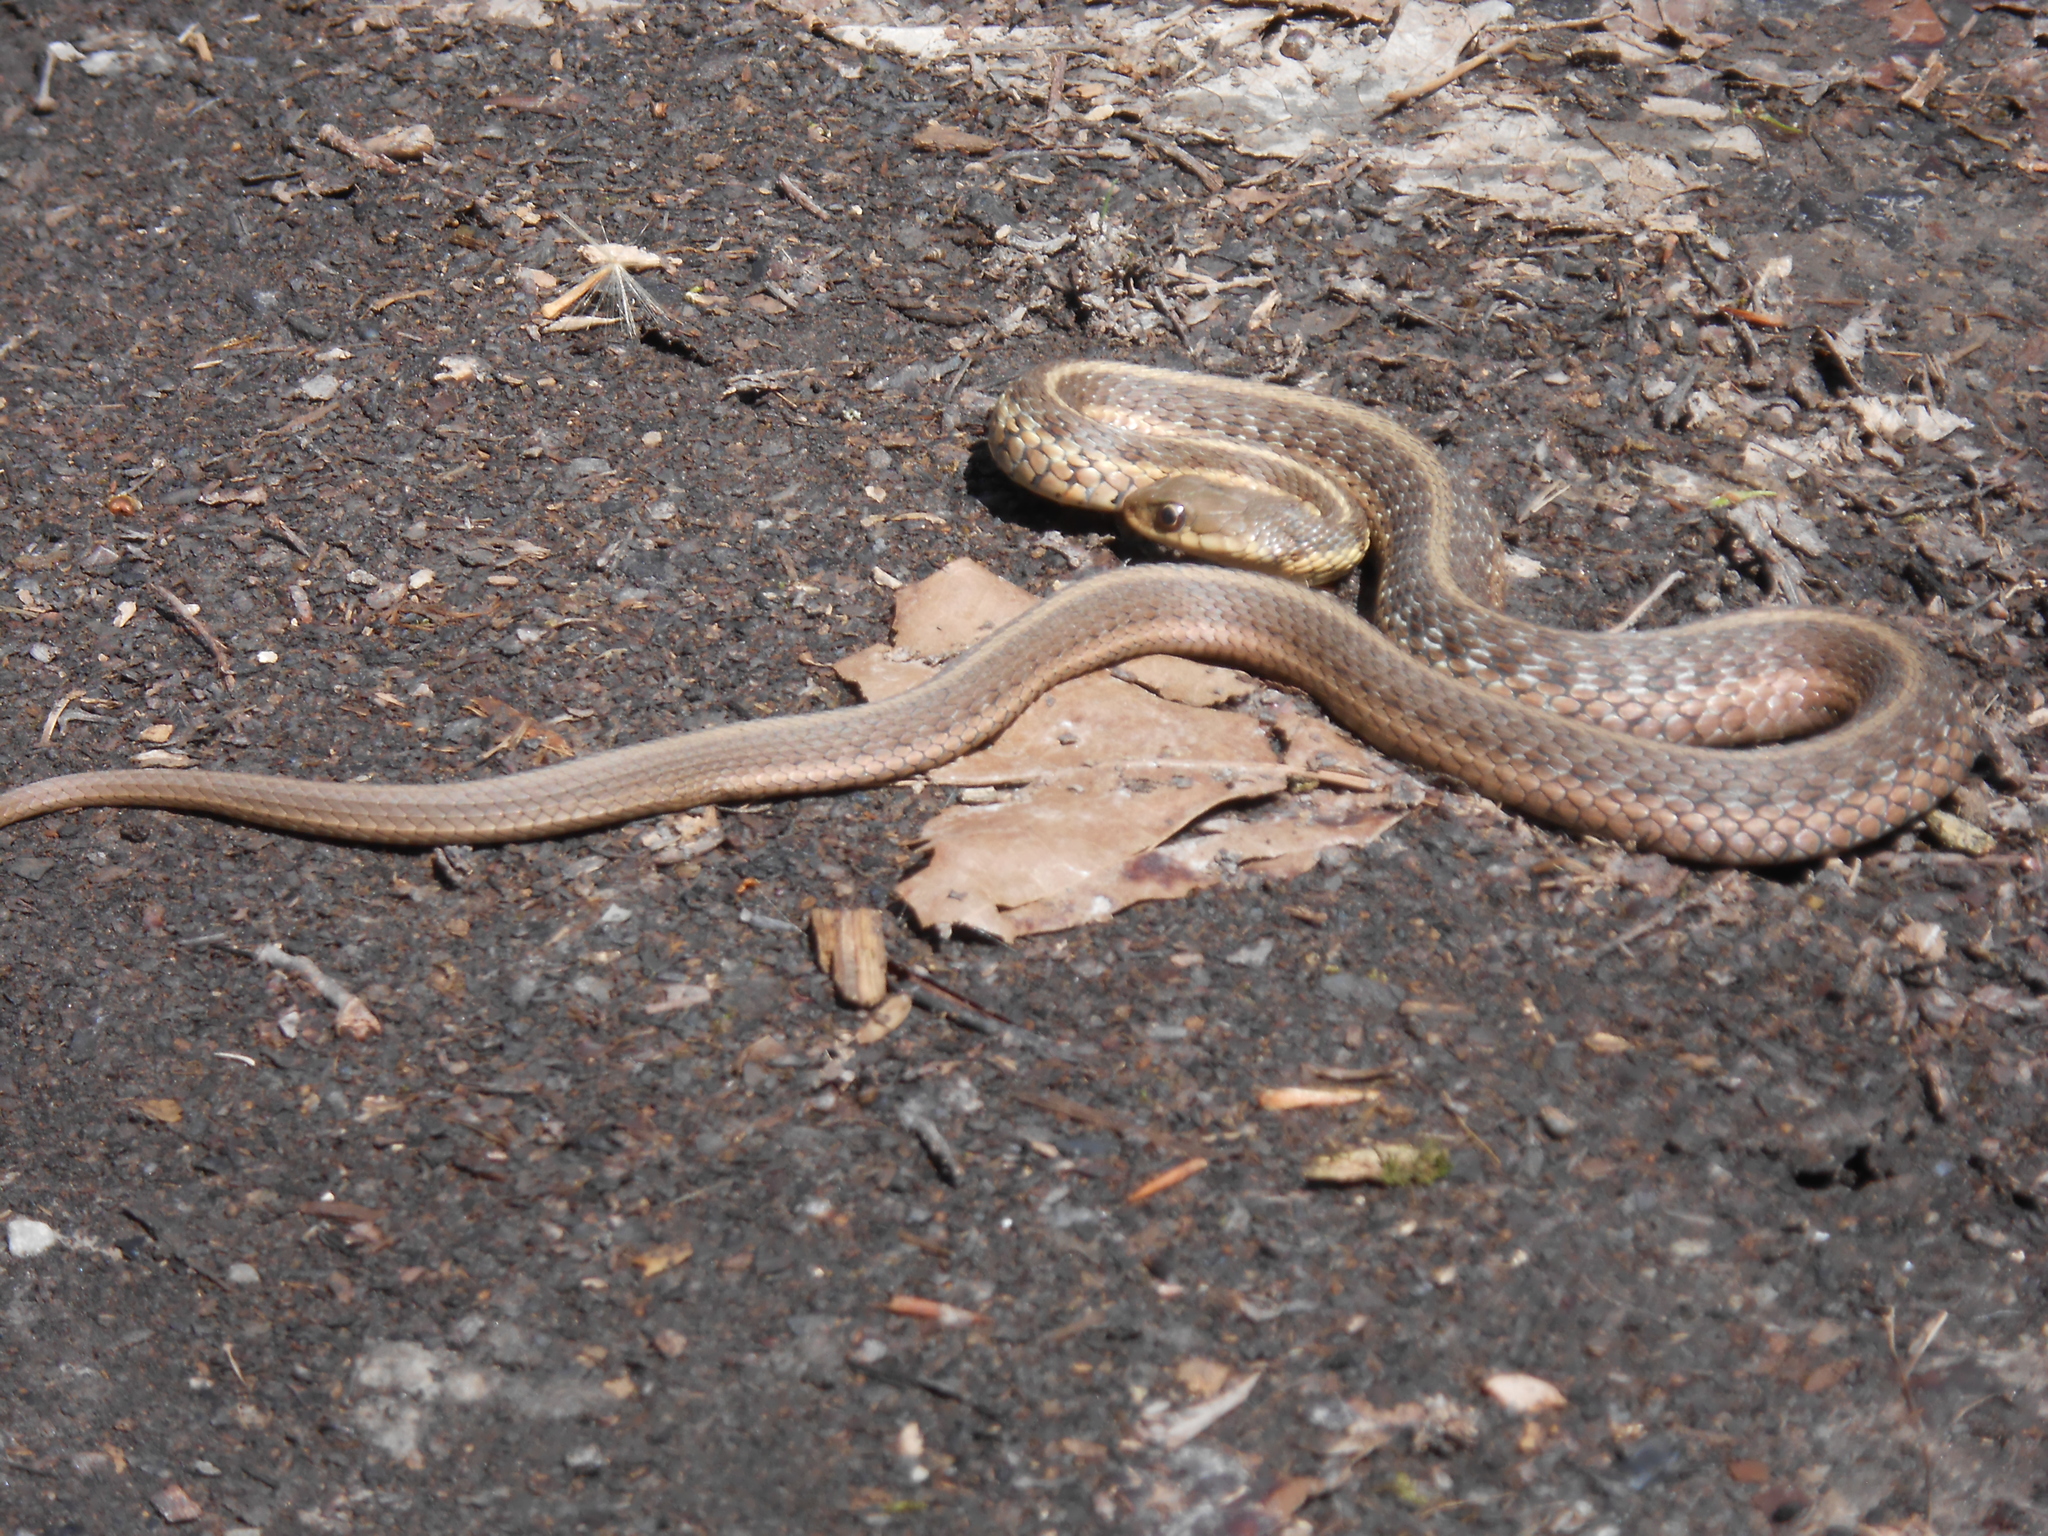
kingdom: Animalia
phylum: Chordata
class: Squamata
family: Colubridae
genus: Thamnophis
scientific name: Thamnophis sirtalis
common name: Common garter snake
